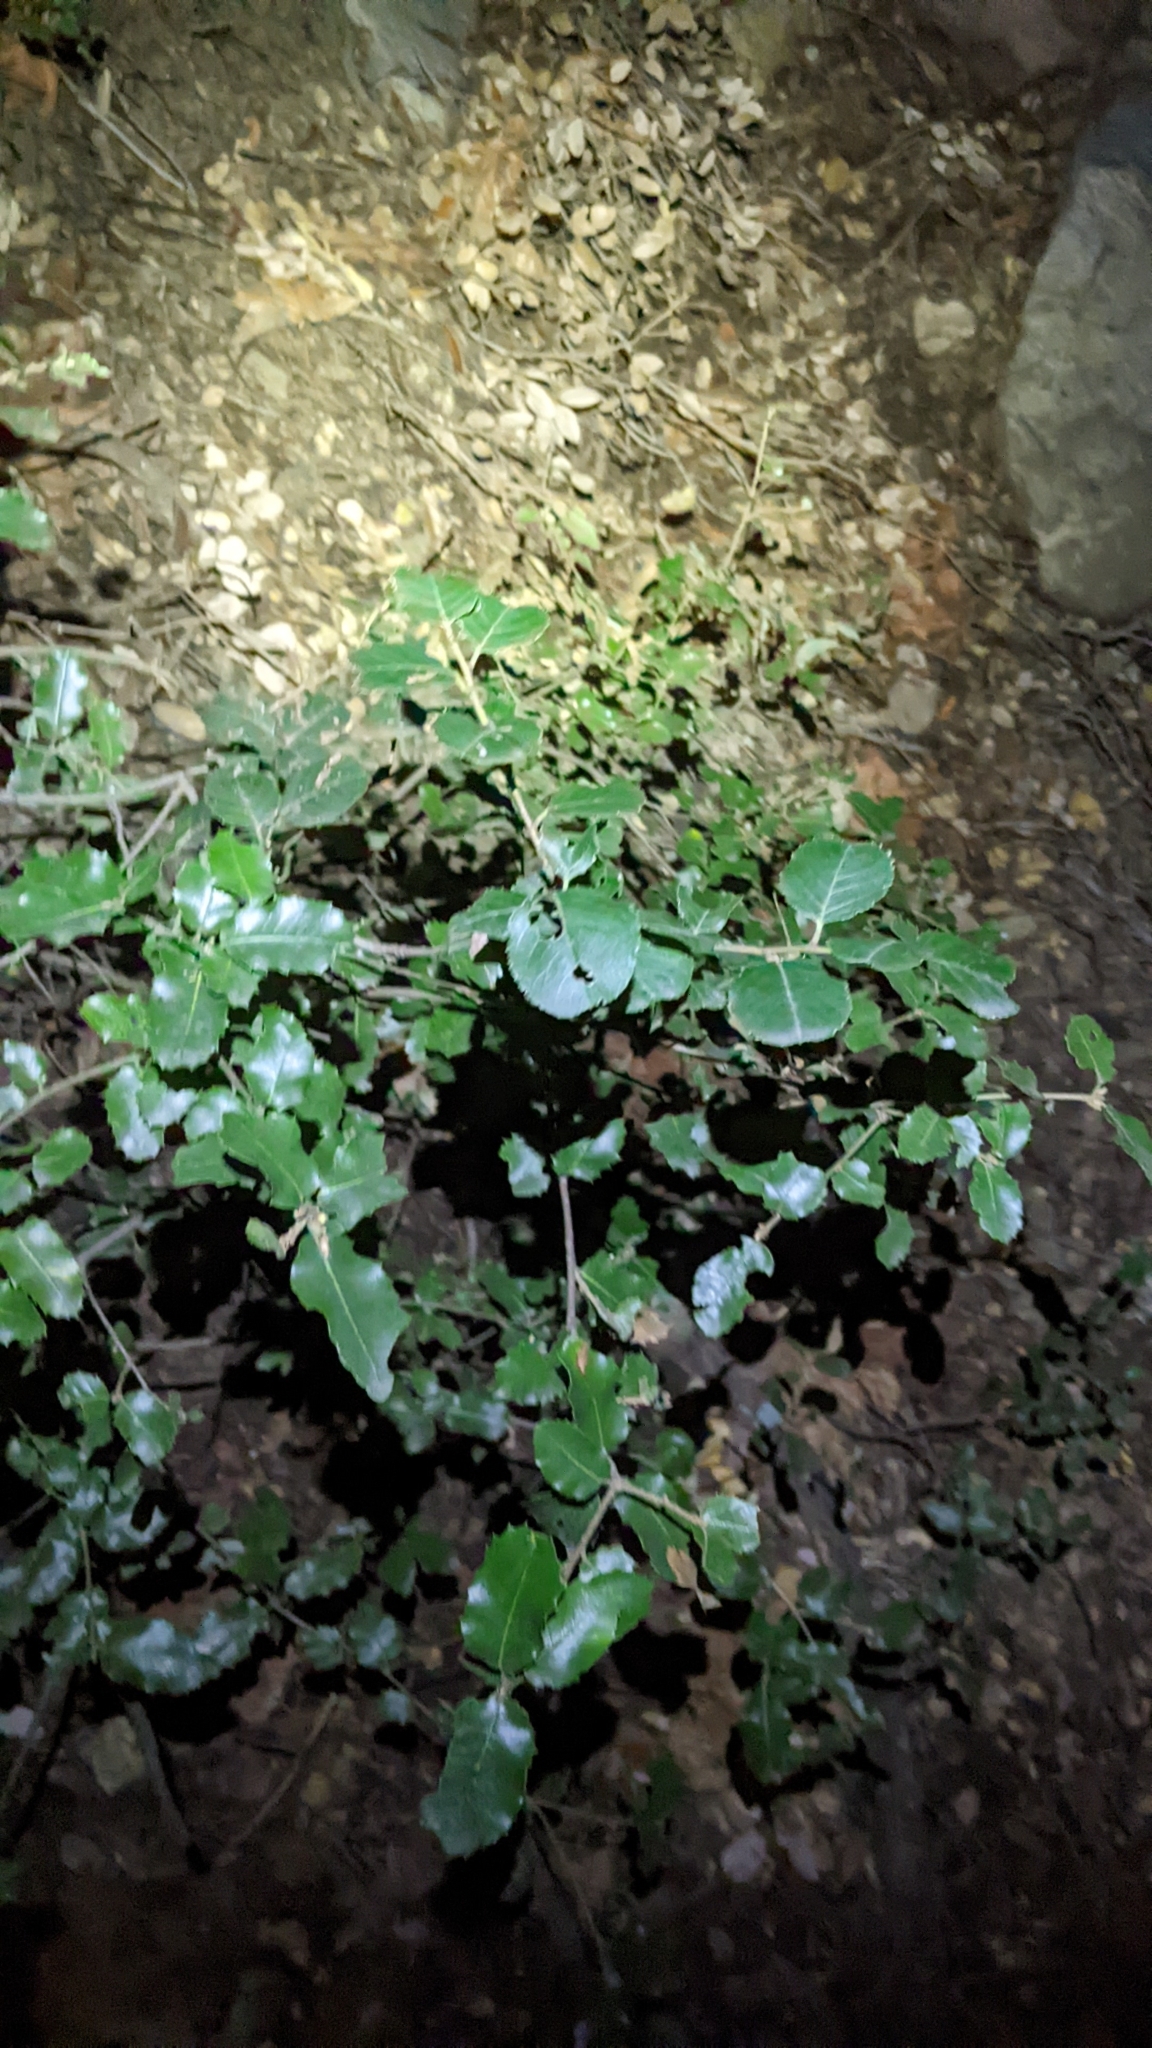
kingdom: Plantae
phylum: Tracheophyta
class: Magnoliopsida
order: Fagales
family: Fagaceae
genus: Quercus
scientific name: Quercus chrysolepis
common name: Canyon live oak
